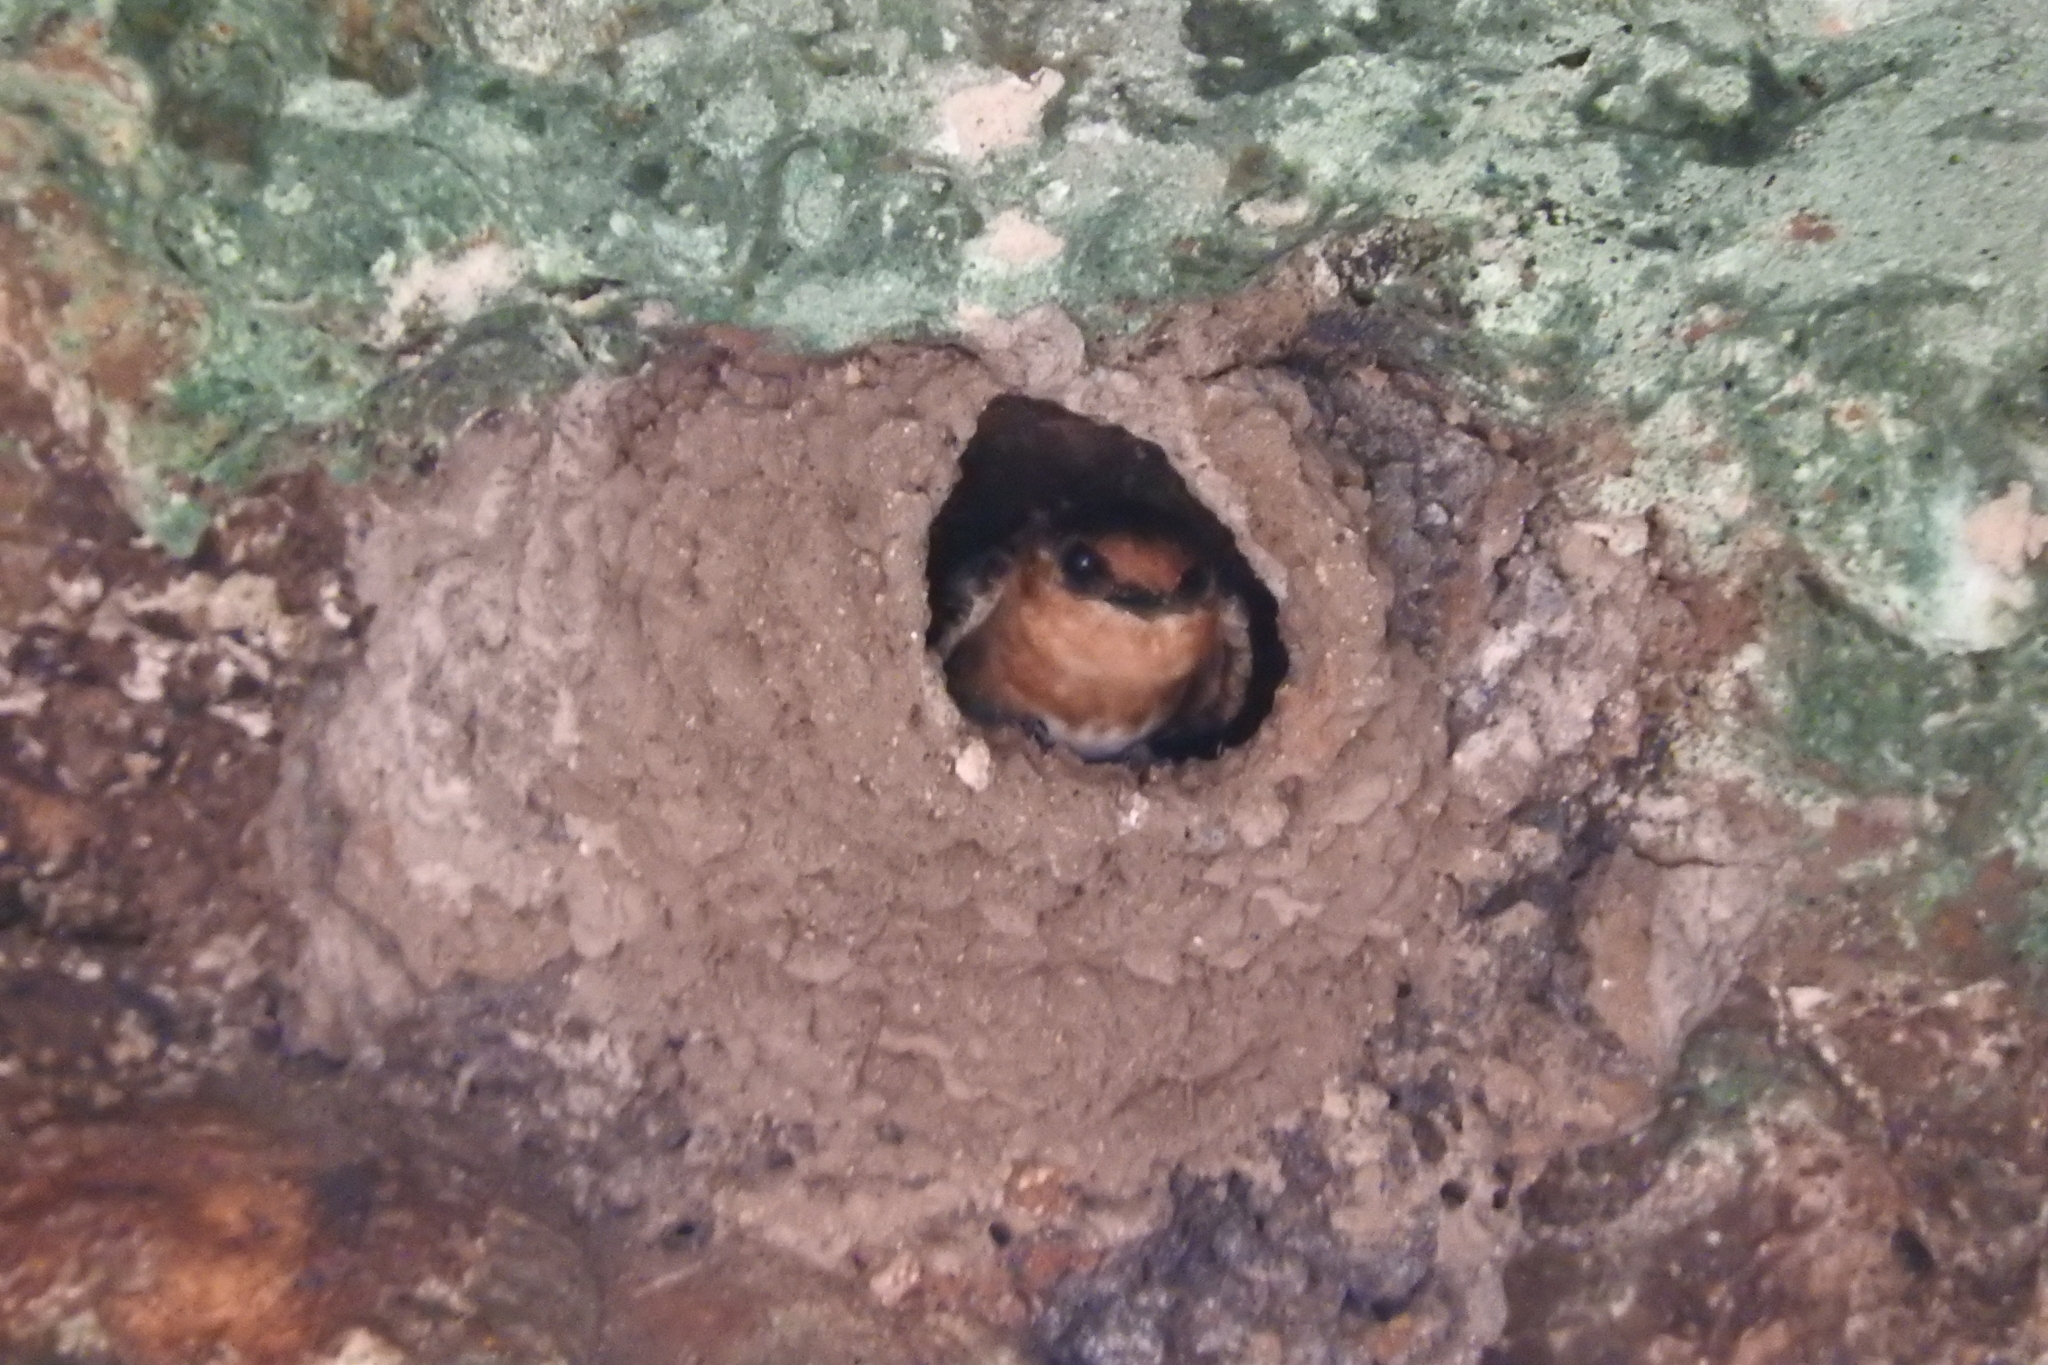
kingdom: Animalia
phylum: Chordata
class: Aves
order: Passeriformes
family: Hirundinidae
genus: Petrochelidon
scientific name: Petrochelidon fulva
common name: Cave swallow
